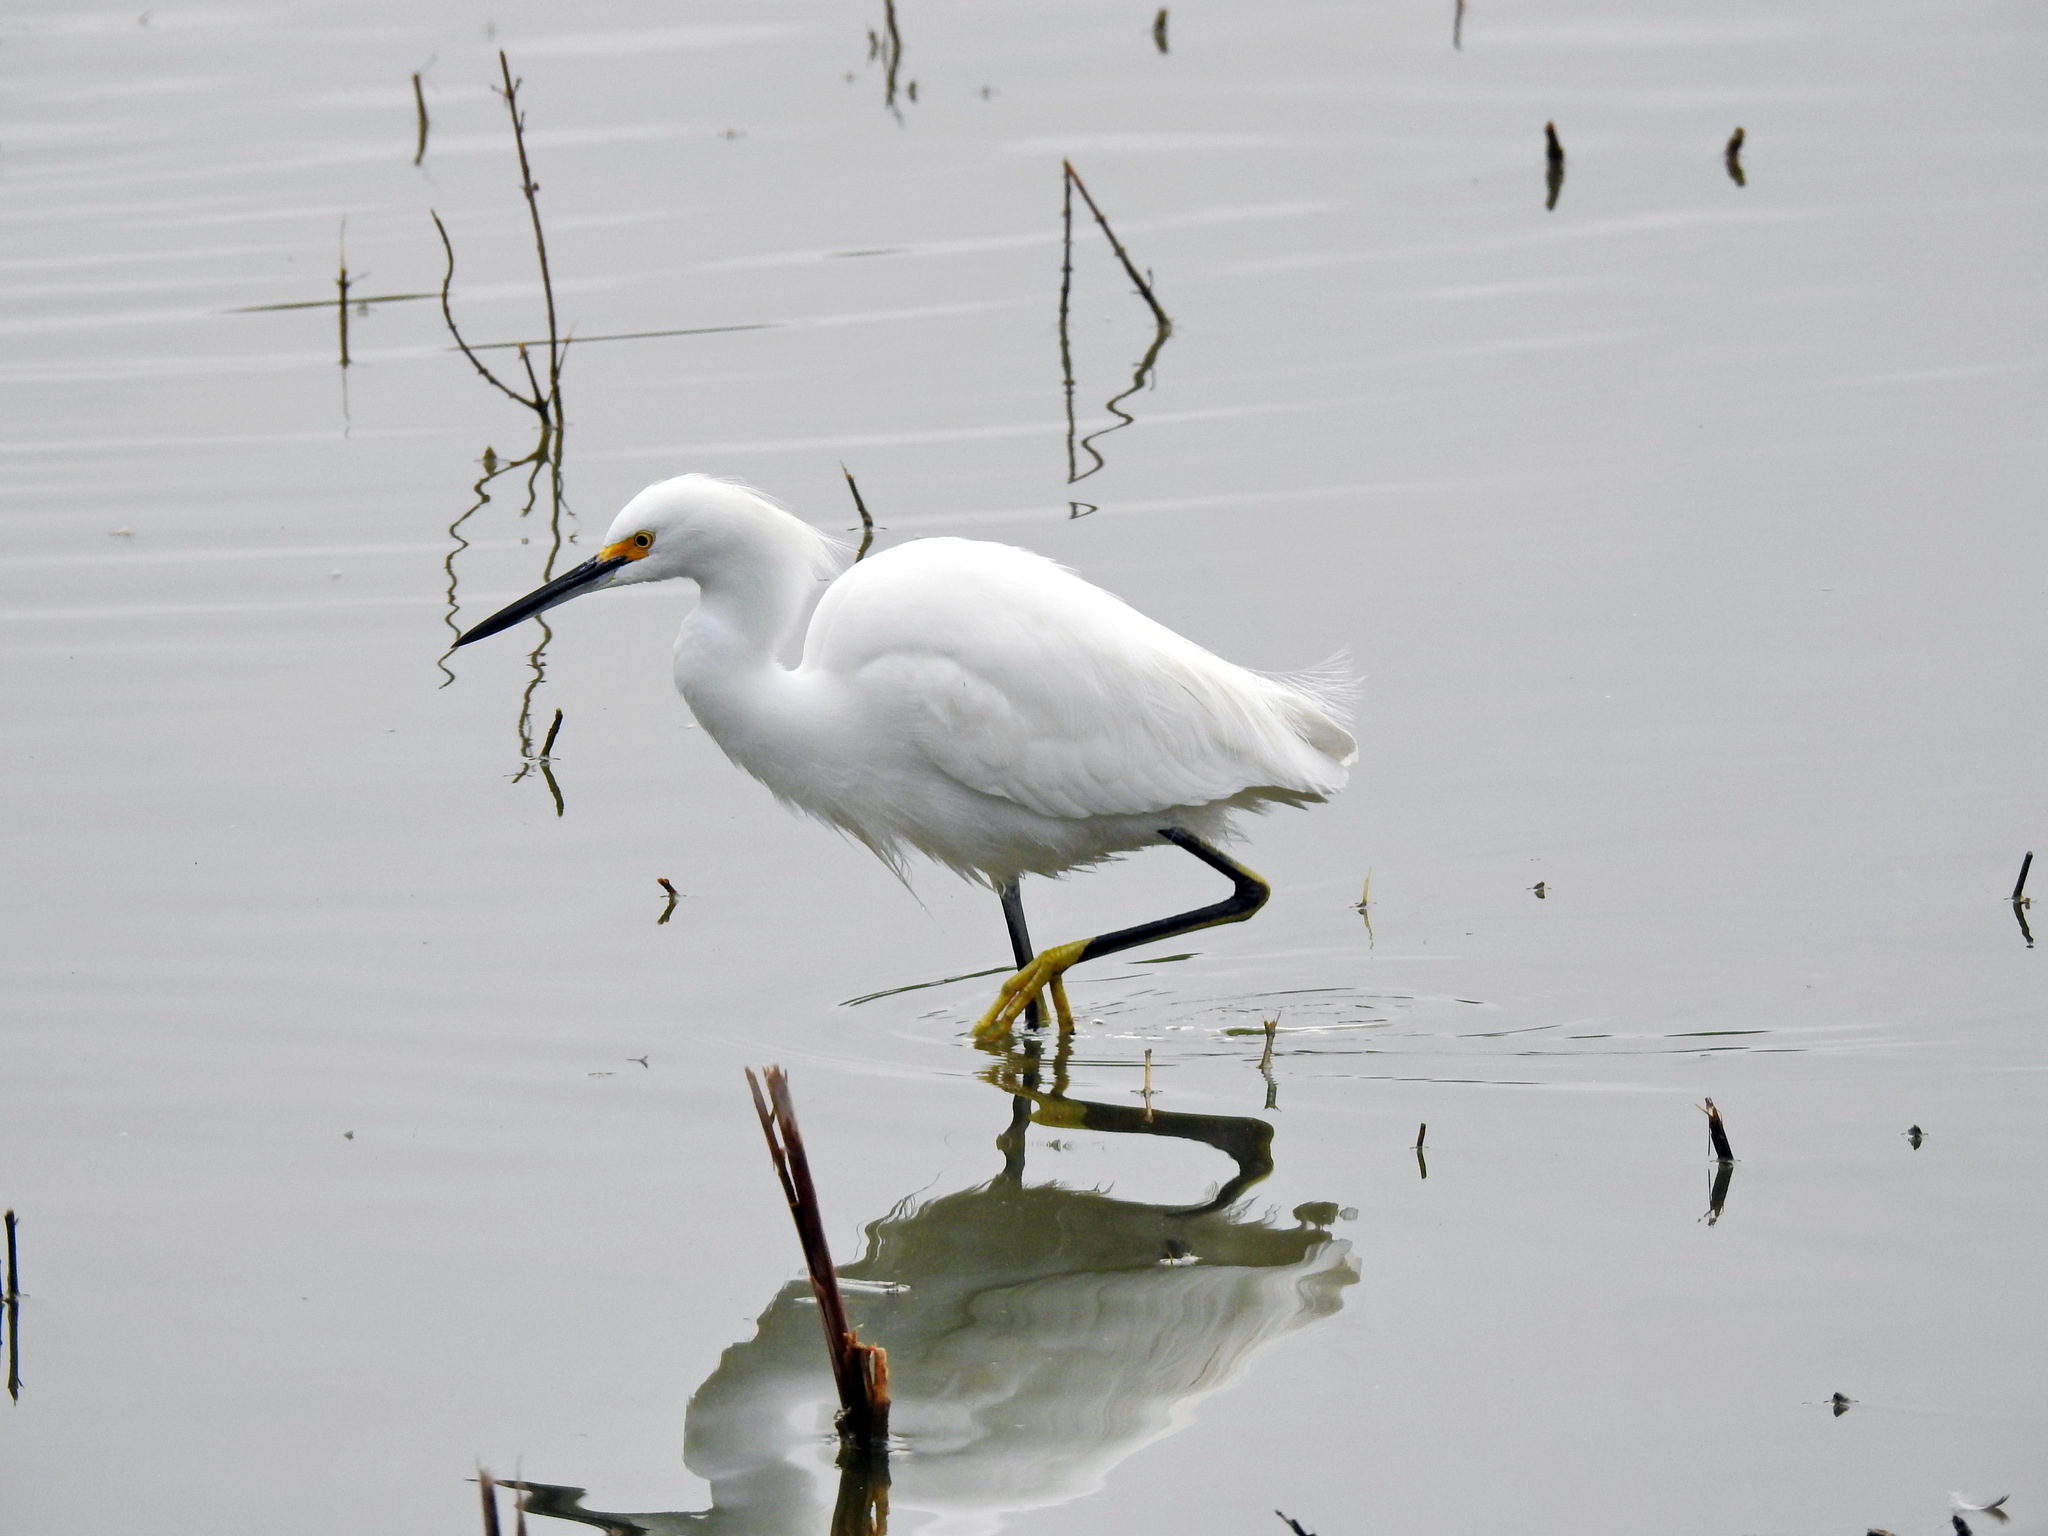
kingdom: Animalia
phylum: Chordata
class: Aves
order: Pelecaniformes
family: Ardeidae
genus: Egretta
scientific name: Egretta thula
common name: Snowy egret
